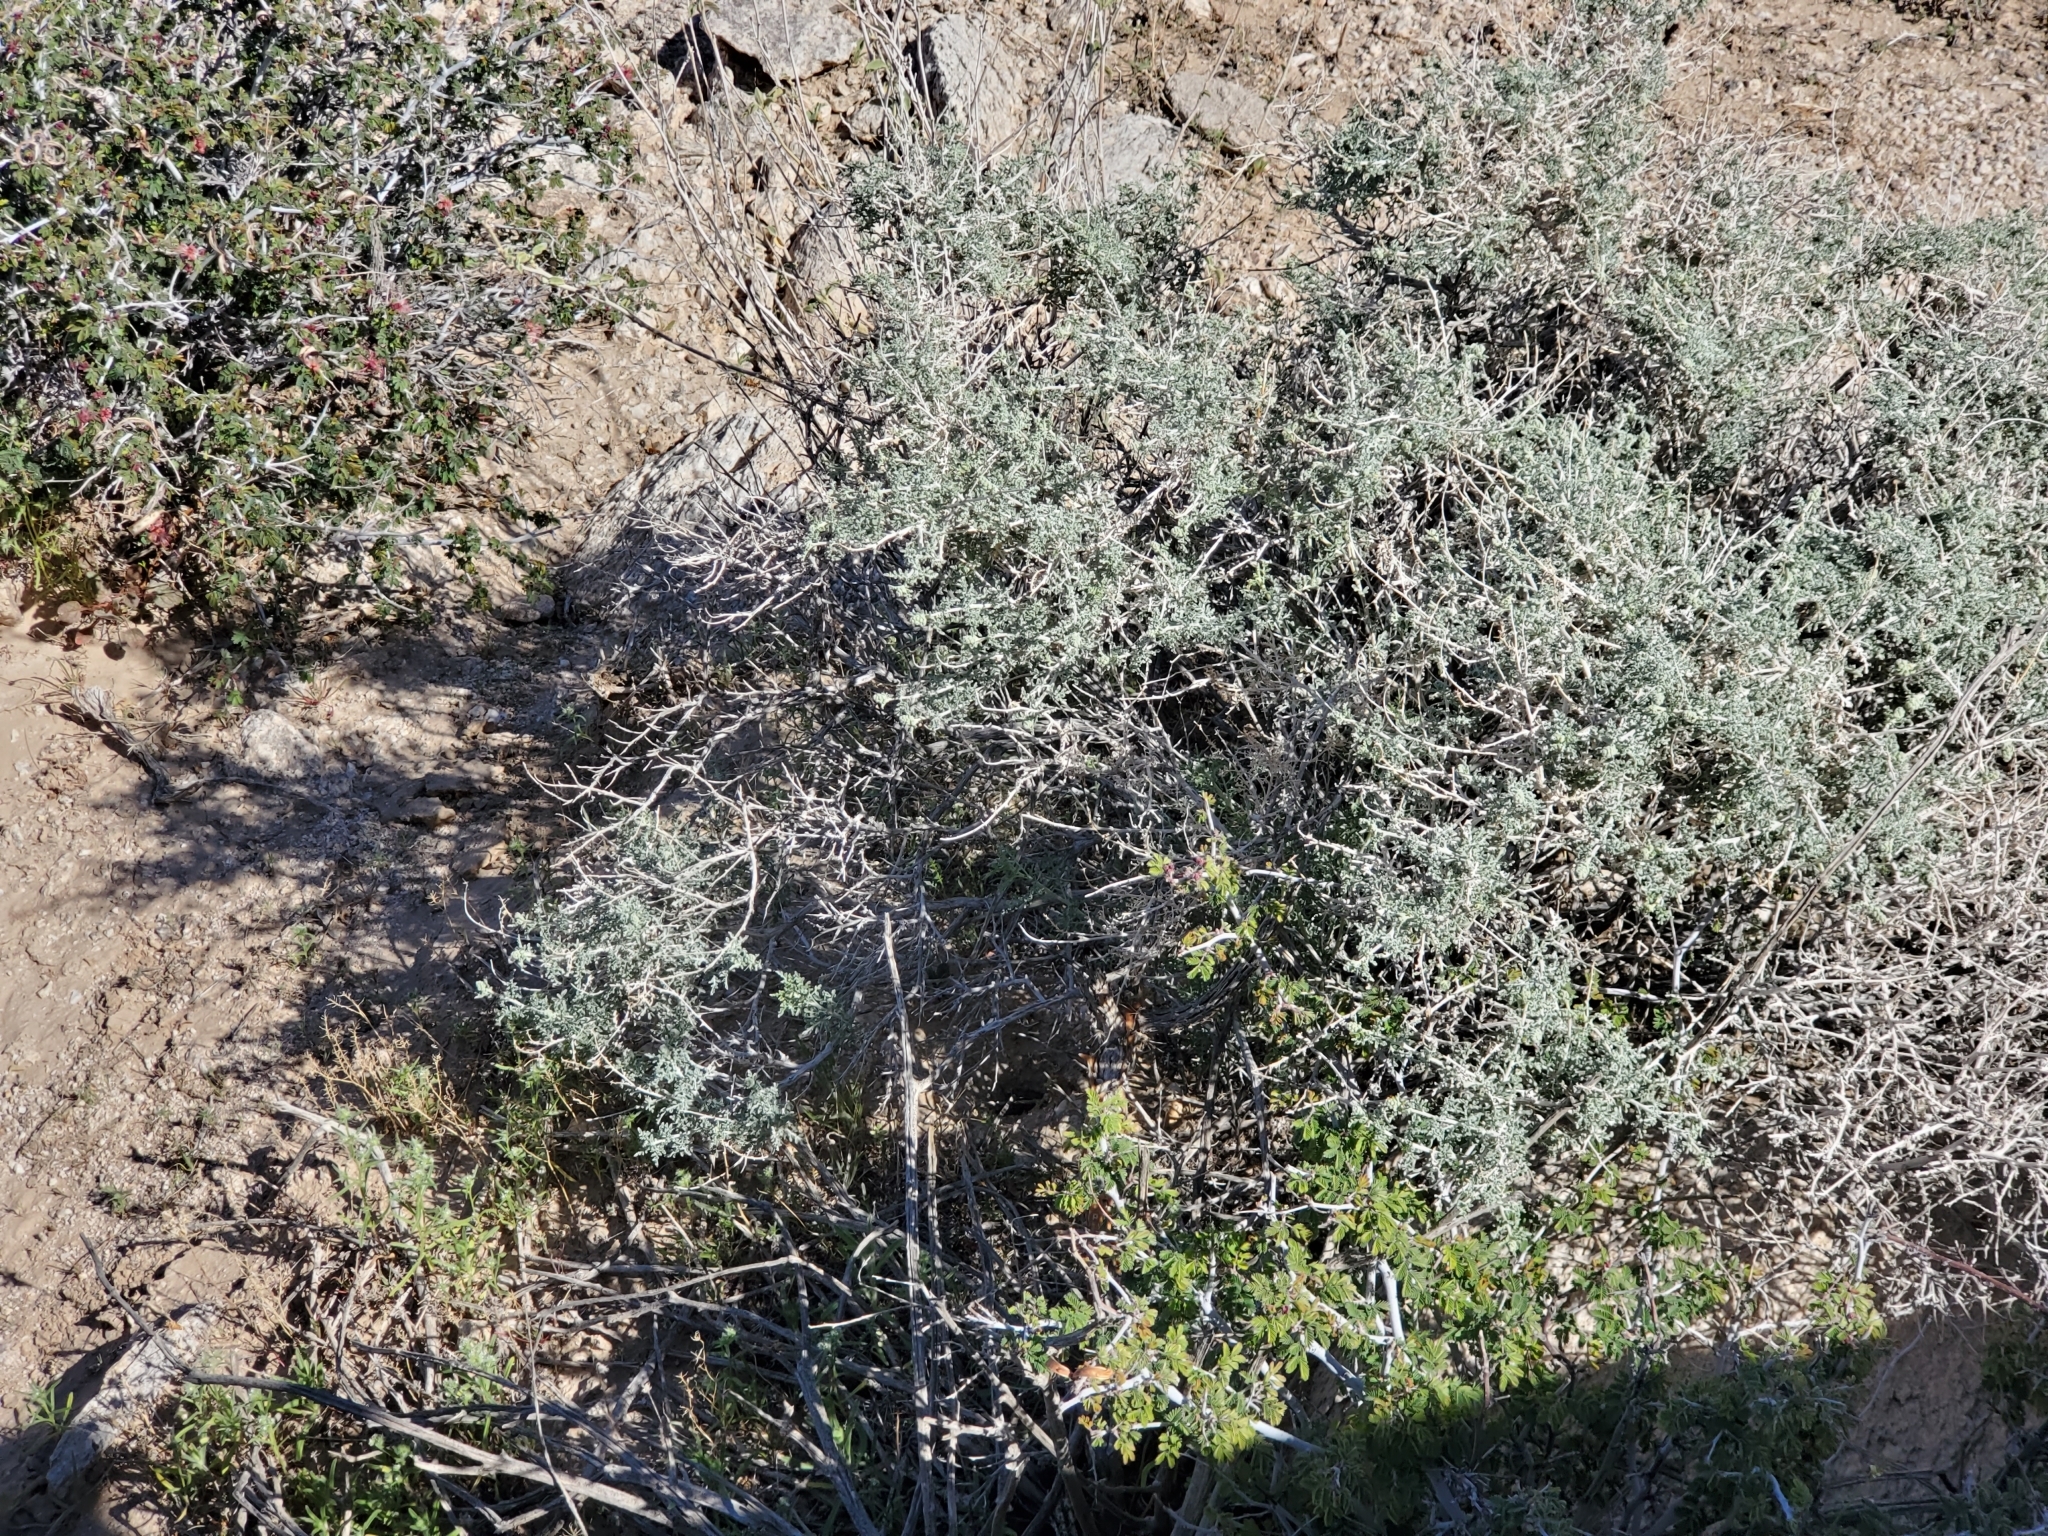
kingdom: Plantae
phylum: Tracheophyta
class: Magnoliopsida
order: Asterales
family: Asteraceae
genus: Ambrosia
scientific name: Ambrosia dumosa
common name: Bur-sage
